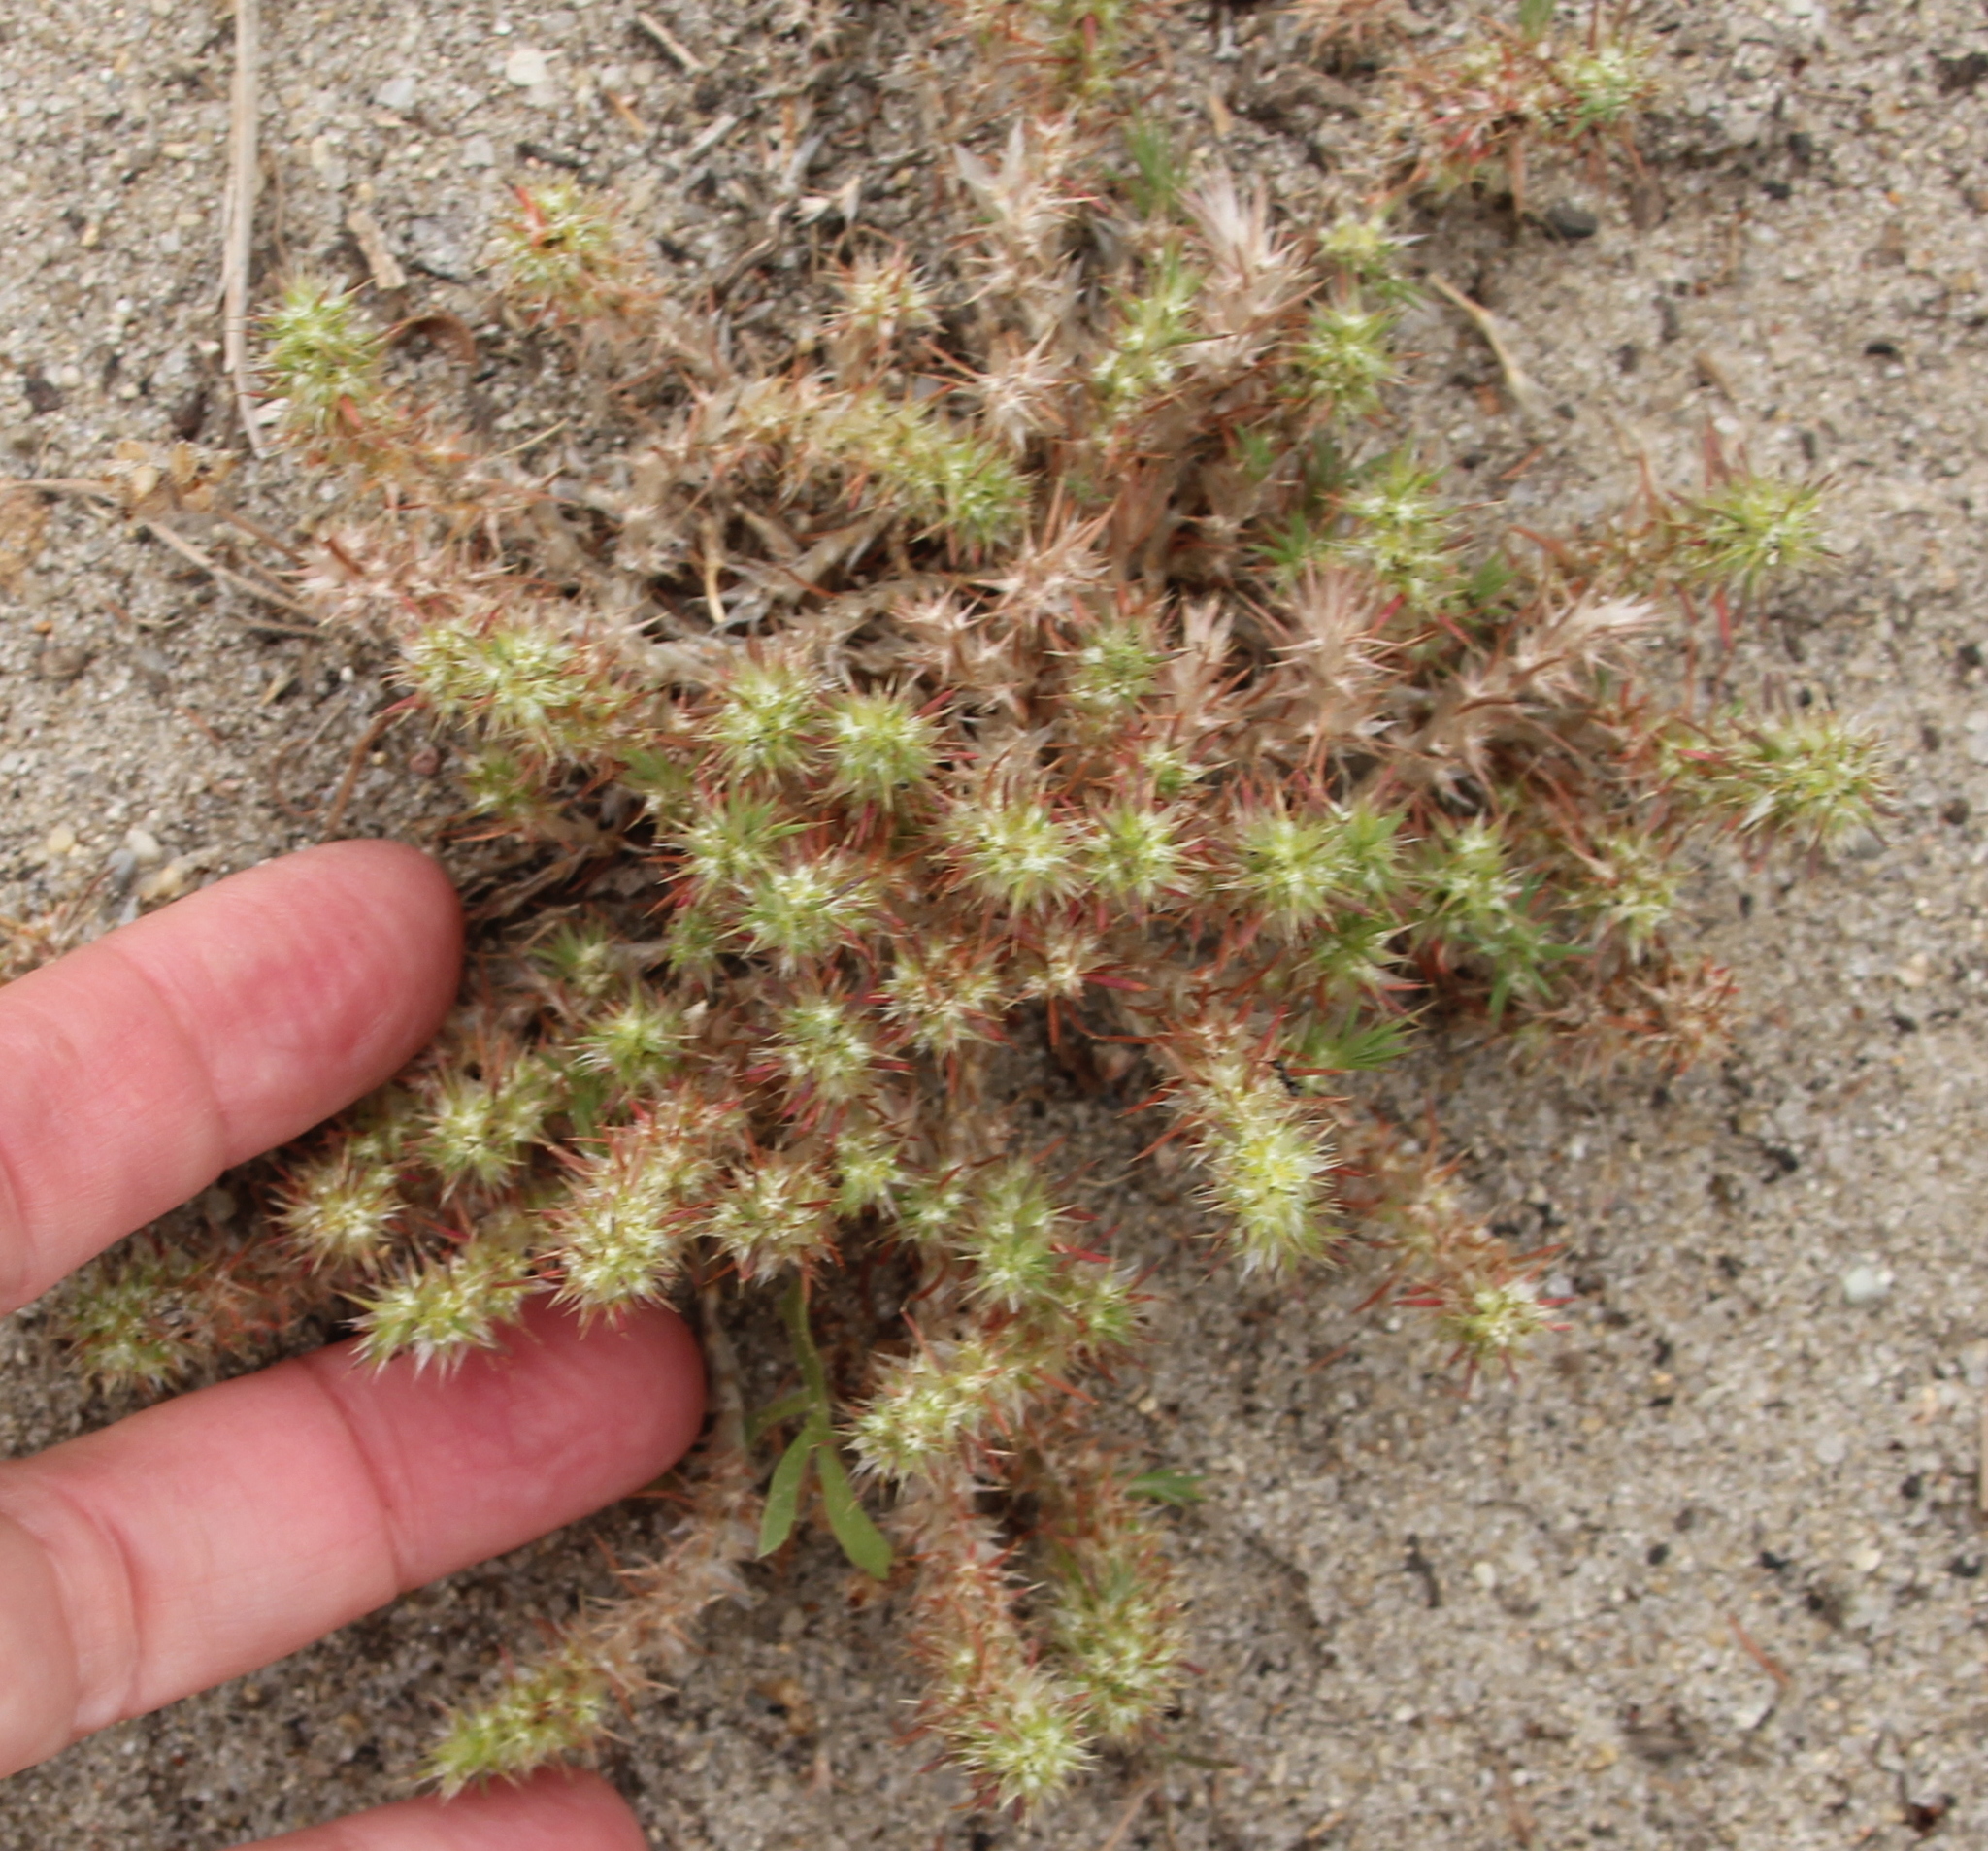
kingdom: Plantae
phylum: Tracheophyta
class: Magnoliopsida
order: Caryophyllales
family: Caryophyllaceae
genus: Cardionema
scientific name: Cardionema ramosissima
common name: Sandcarpet
